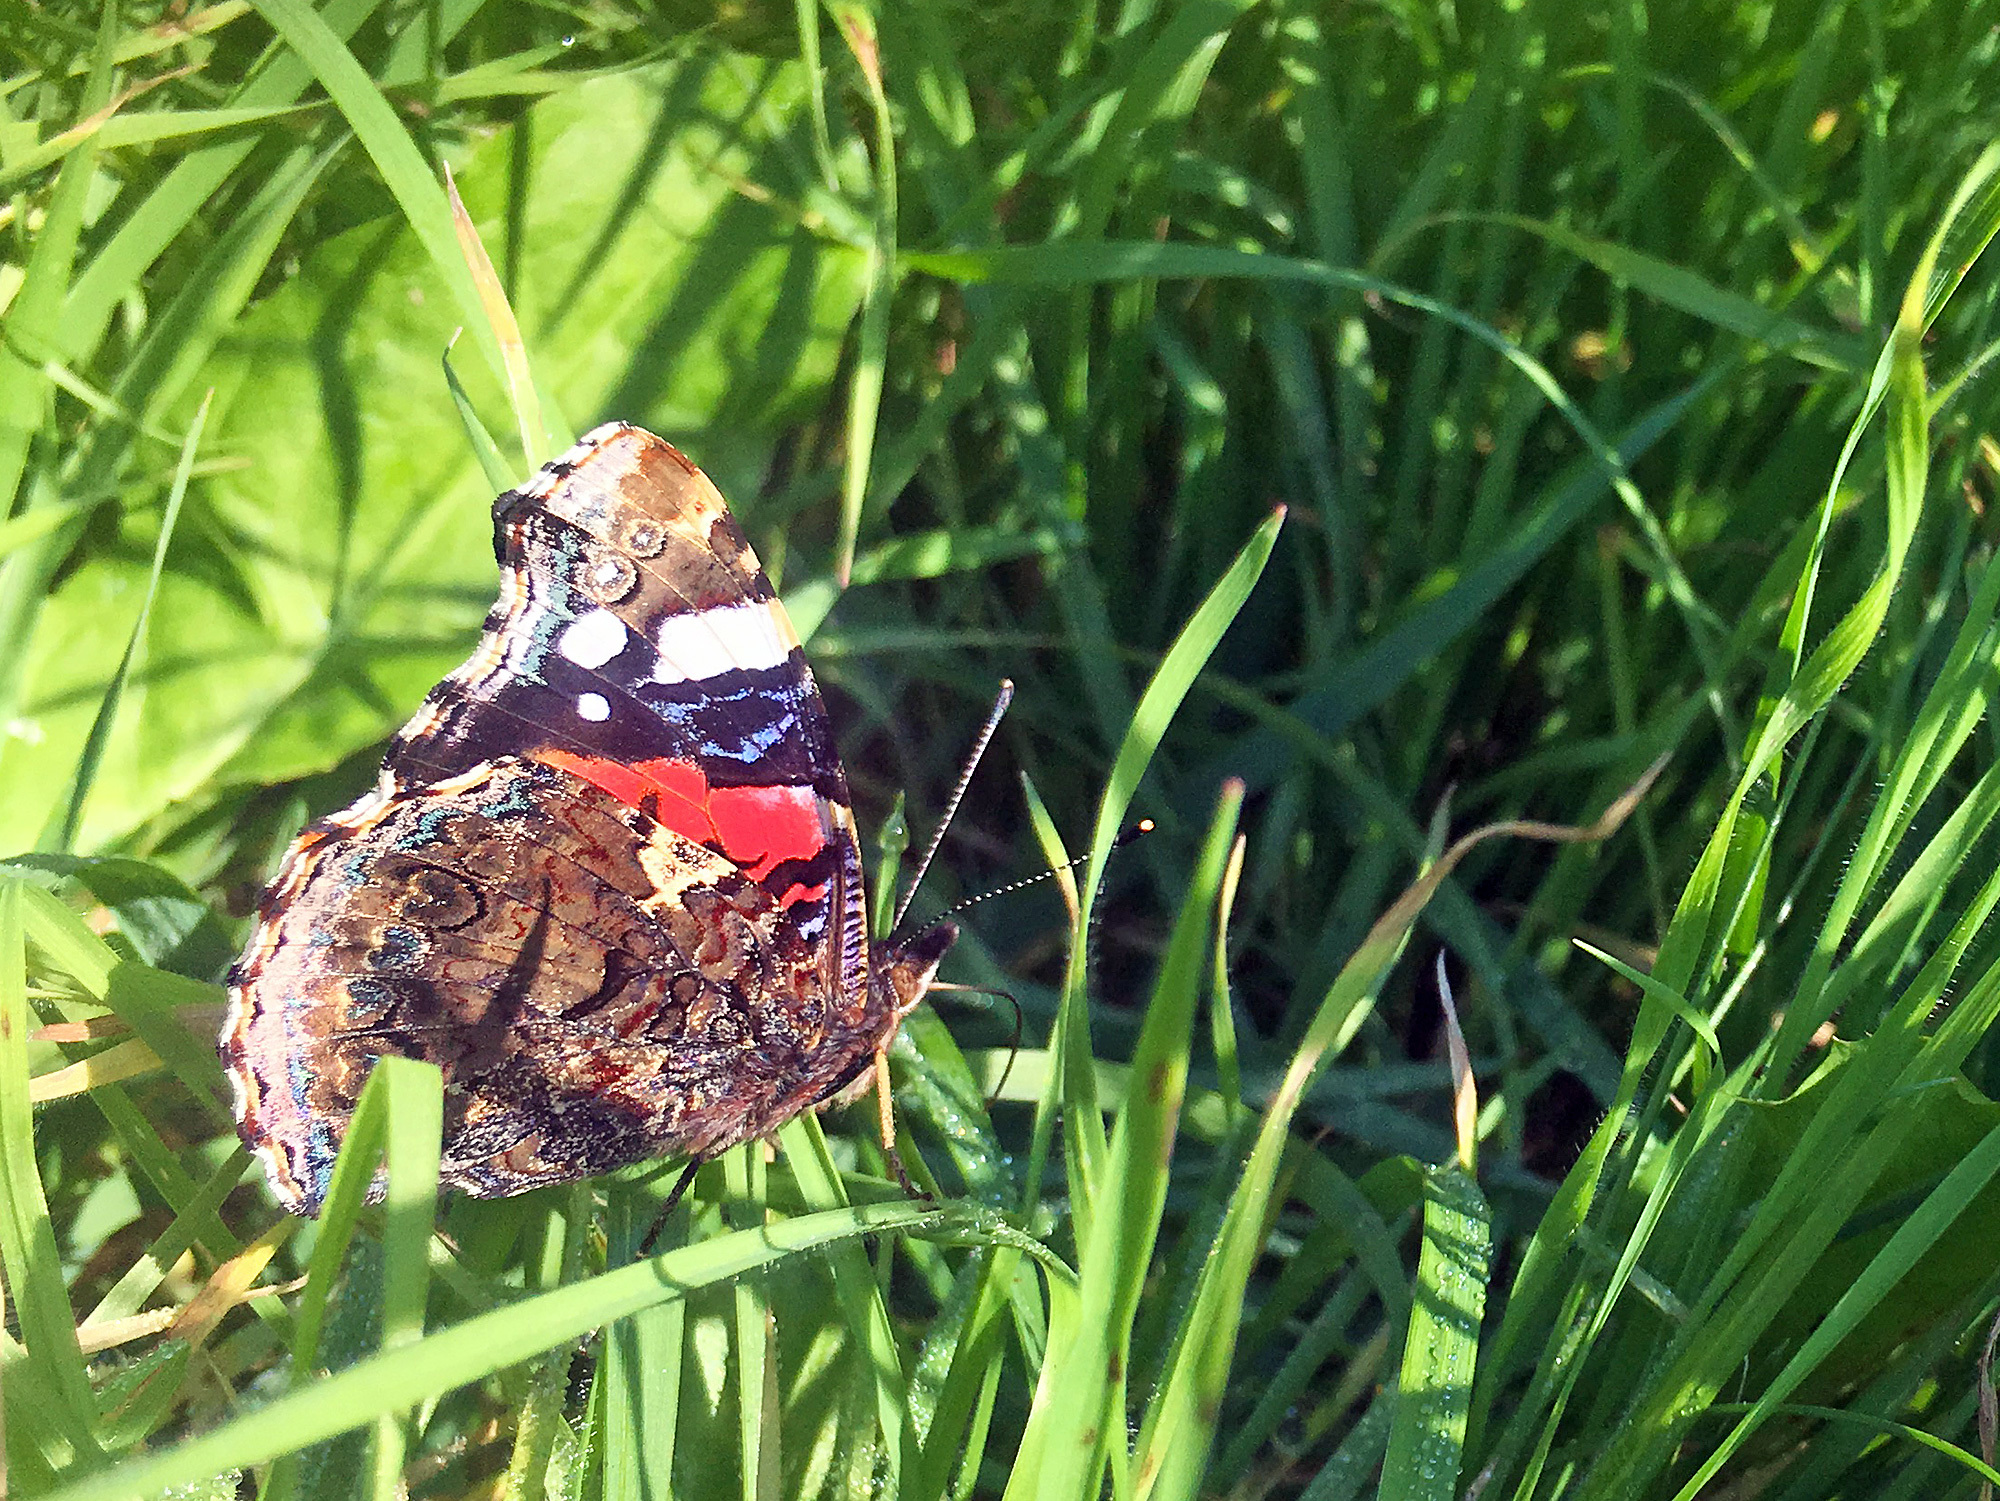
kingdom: Animalia
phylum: Arthropoda
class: Insecta
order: Lepidoptera
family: Nymphalidae
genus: Vanessa
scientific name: Vanessa atalanta
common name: Red admiral
